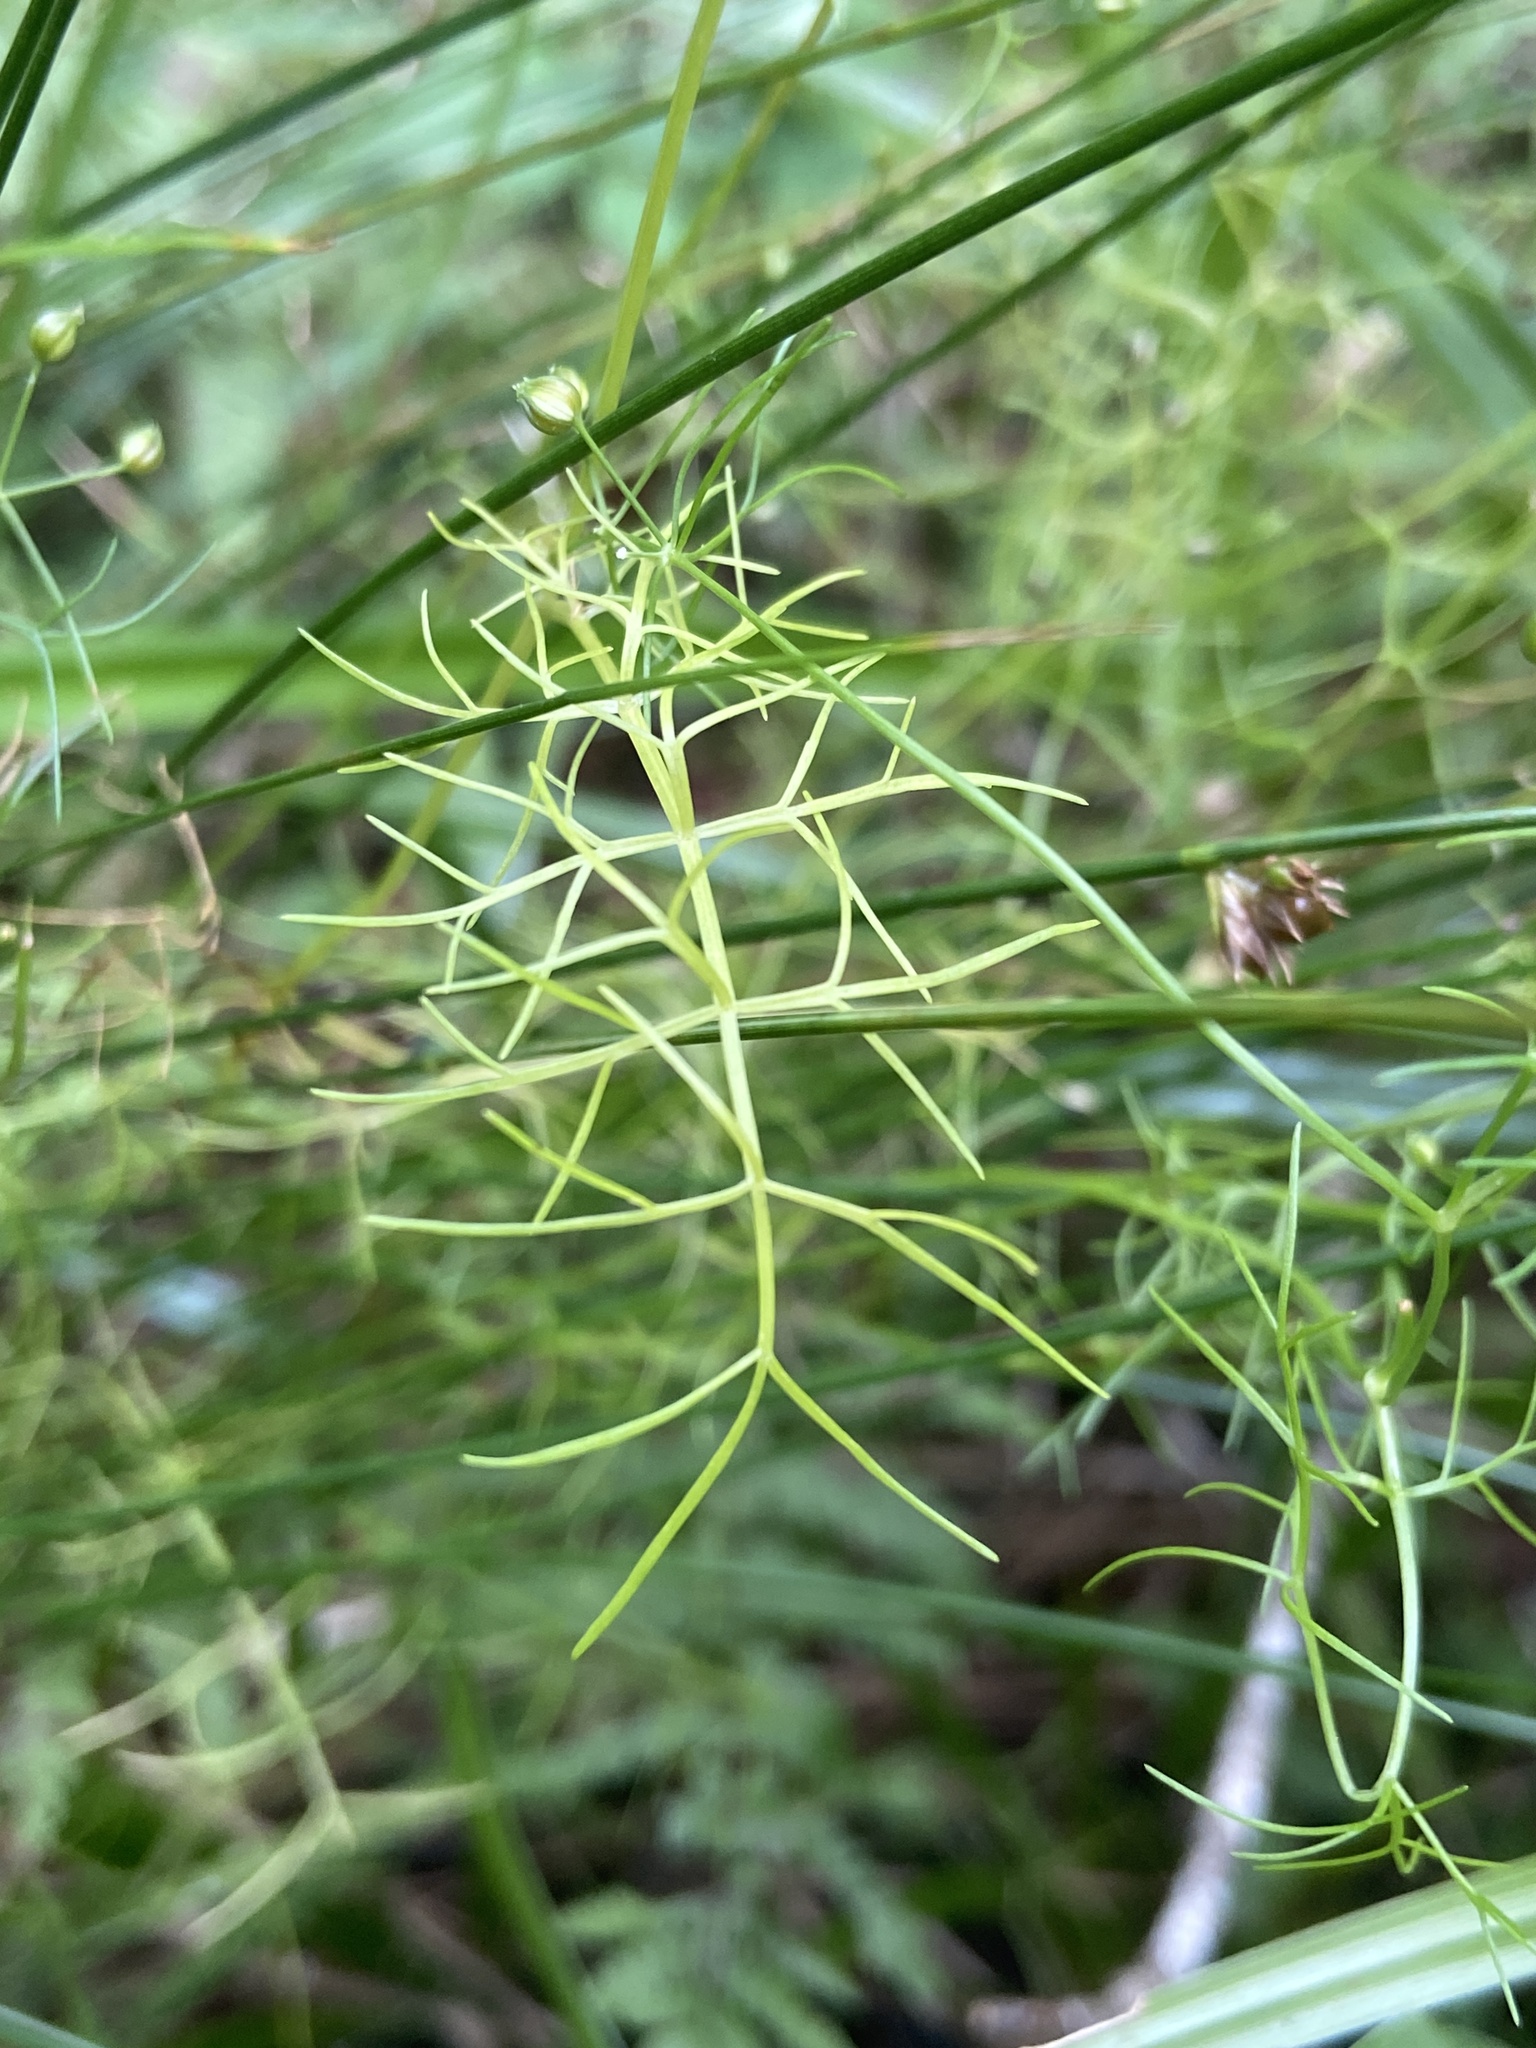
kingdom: Plantae
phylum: Tracheophyta
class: Magnoliopsida
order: Apiales
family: Apiaceae
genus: Ptilimnium
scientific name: Ptilimnium capillaceum
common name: Herbwilliam
